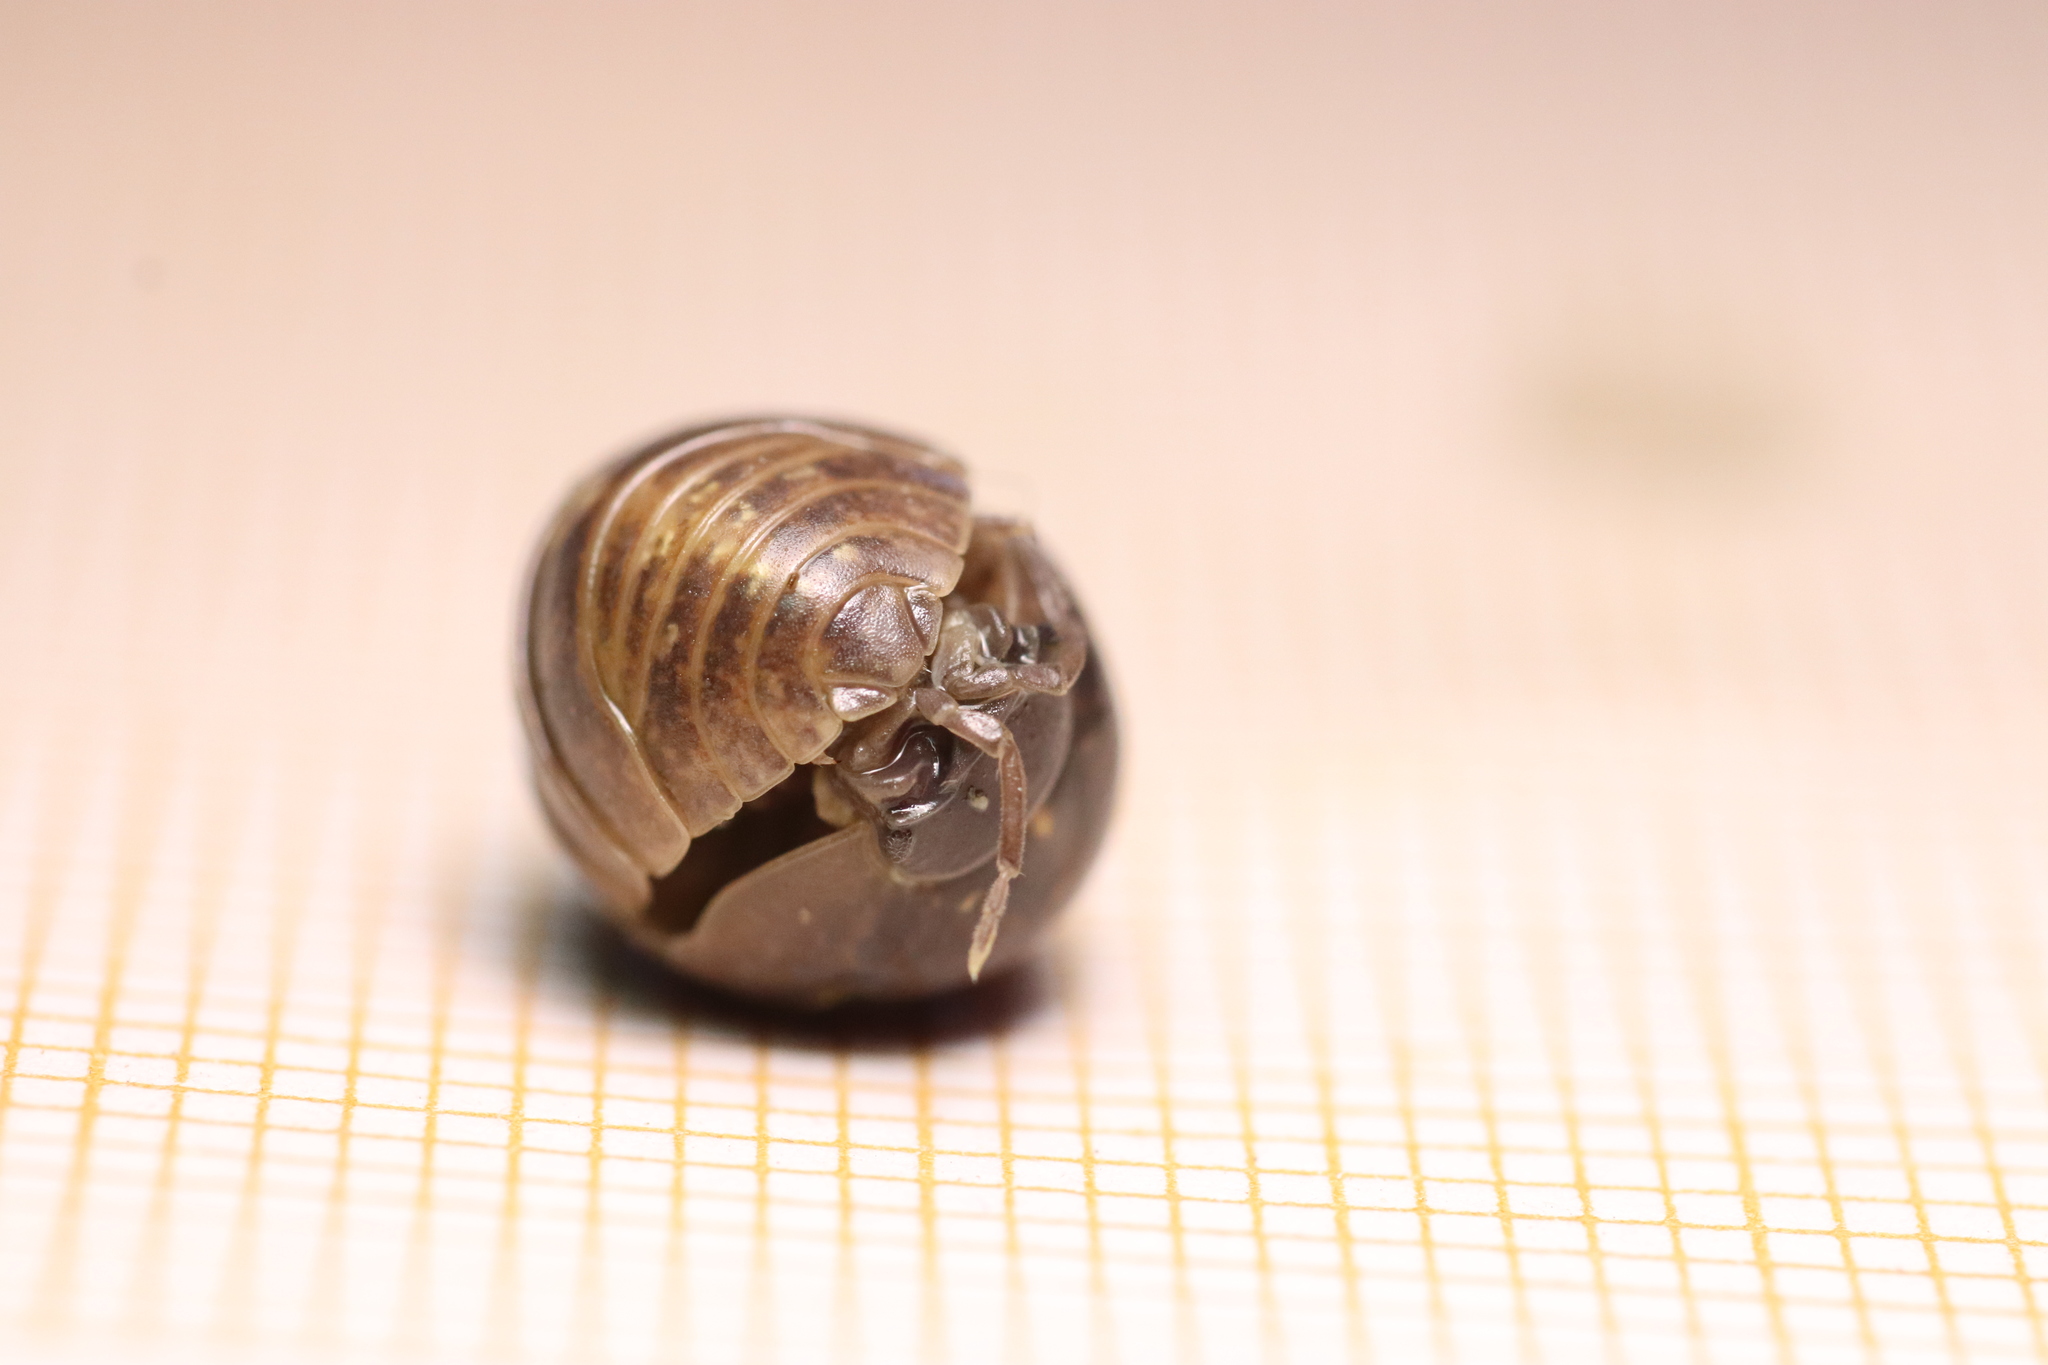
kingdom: Animalia
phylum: Arthropoda
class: Malacostraca
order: Isopoda
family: Armadillidiidae
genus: Armadillidium
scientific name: Armadillidium vulgare
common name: Common pill woodlouse
